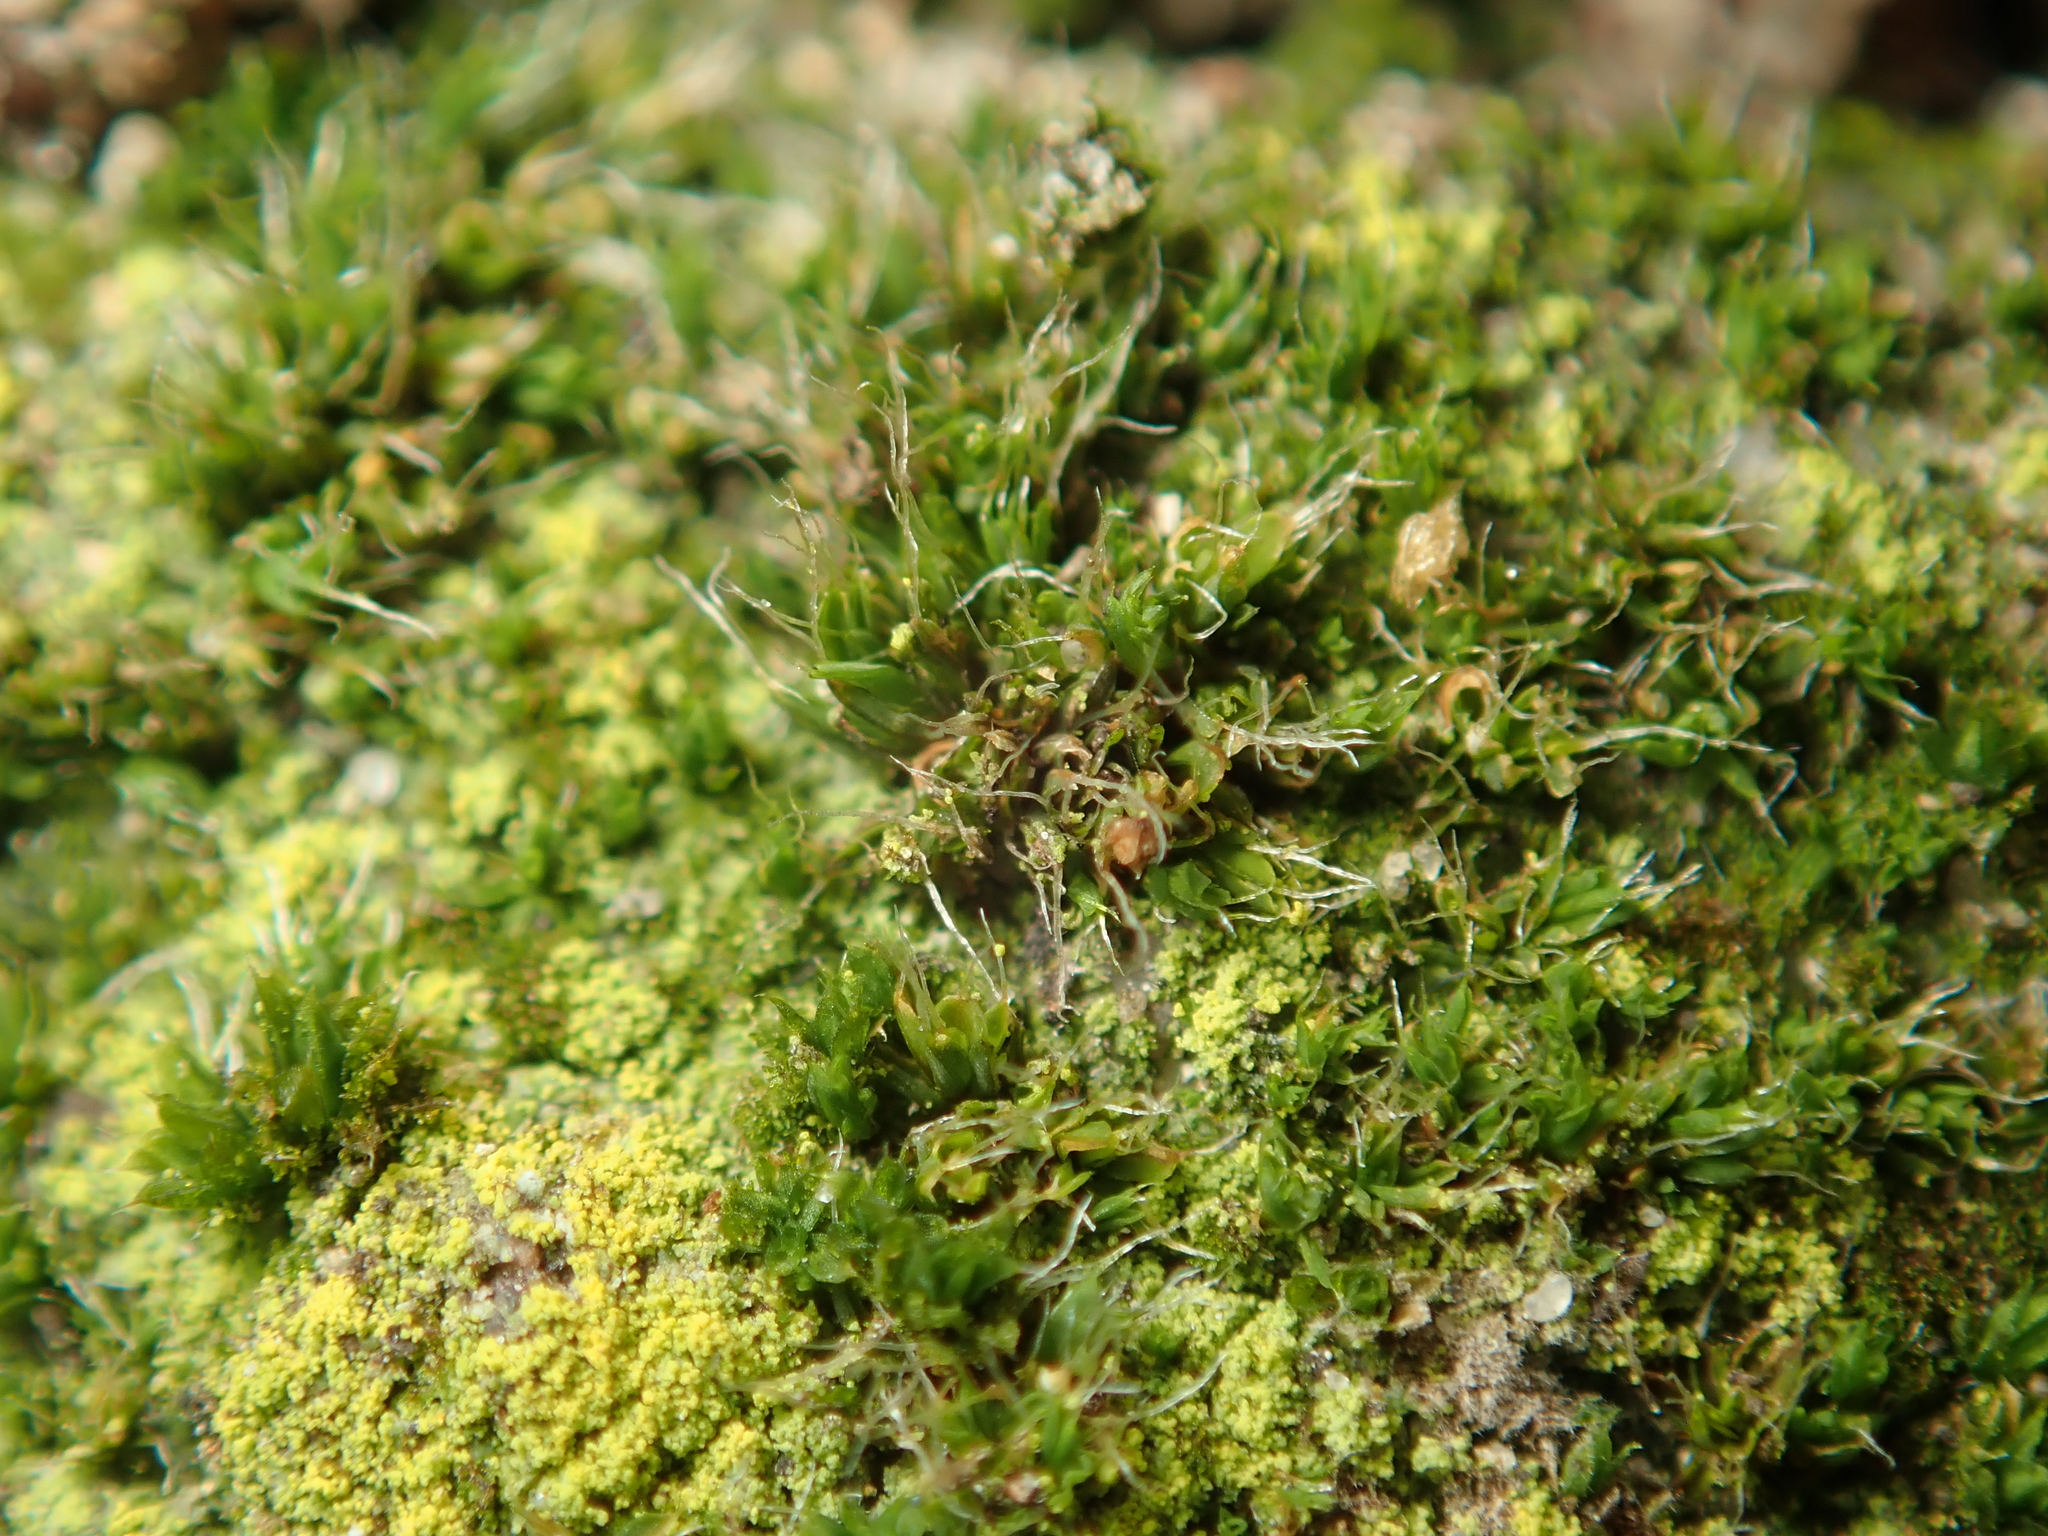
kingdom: Plantae
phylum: Bryophyta
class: Bryopsida
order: Pottiales
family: Pottiaceae
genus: Tortula
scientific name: Tortula muralis
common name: Wall screw-moss
